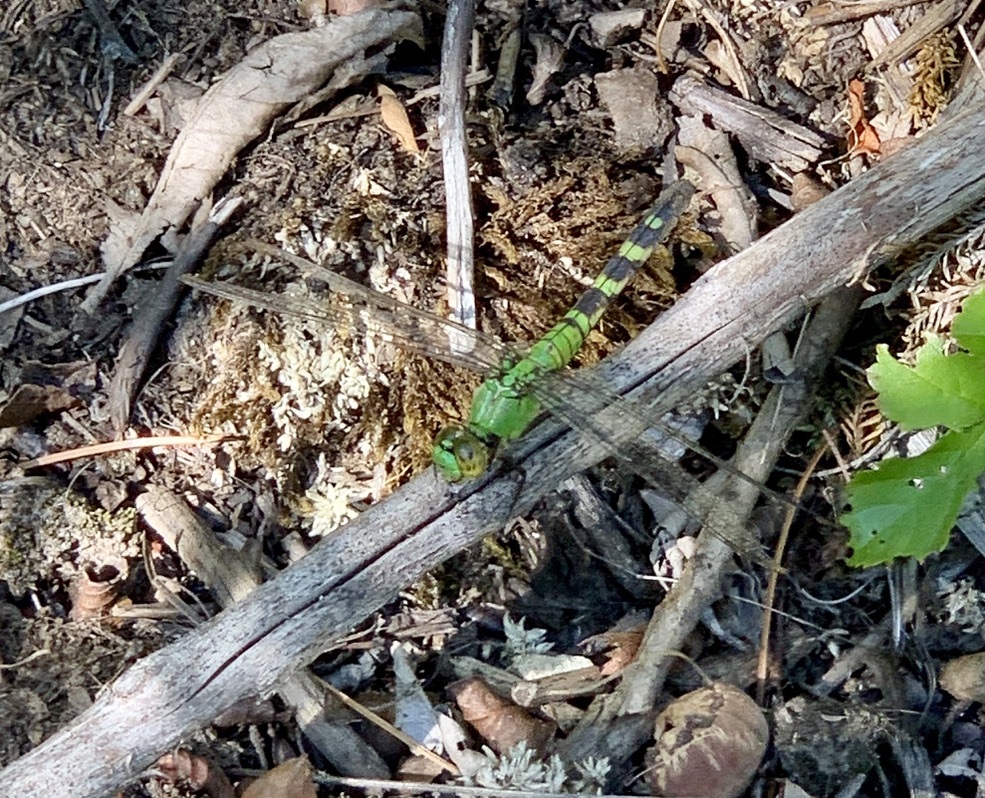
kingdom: Animalia
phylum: Arthropoda
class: Insecta
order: Odonata
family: Libellulidae
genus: Erythemis
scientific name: Erythemis simplicicollis
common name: Eastern pondhawk
